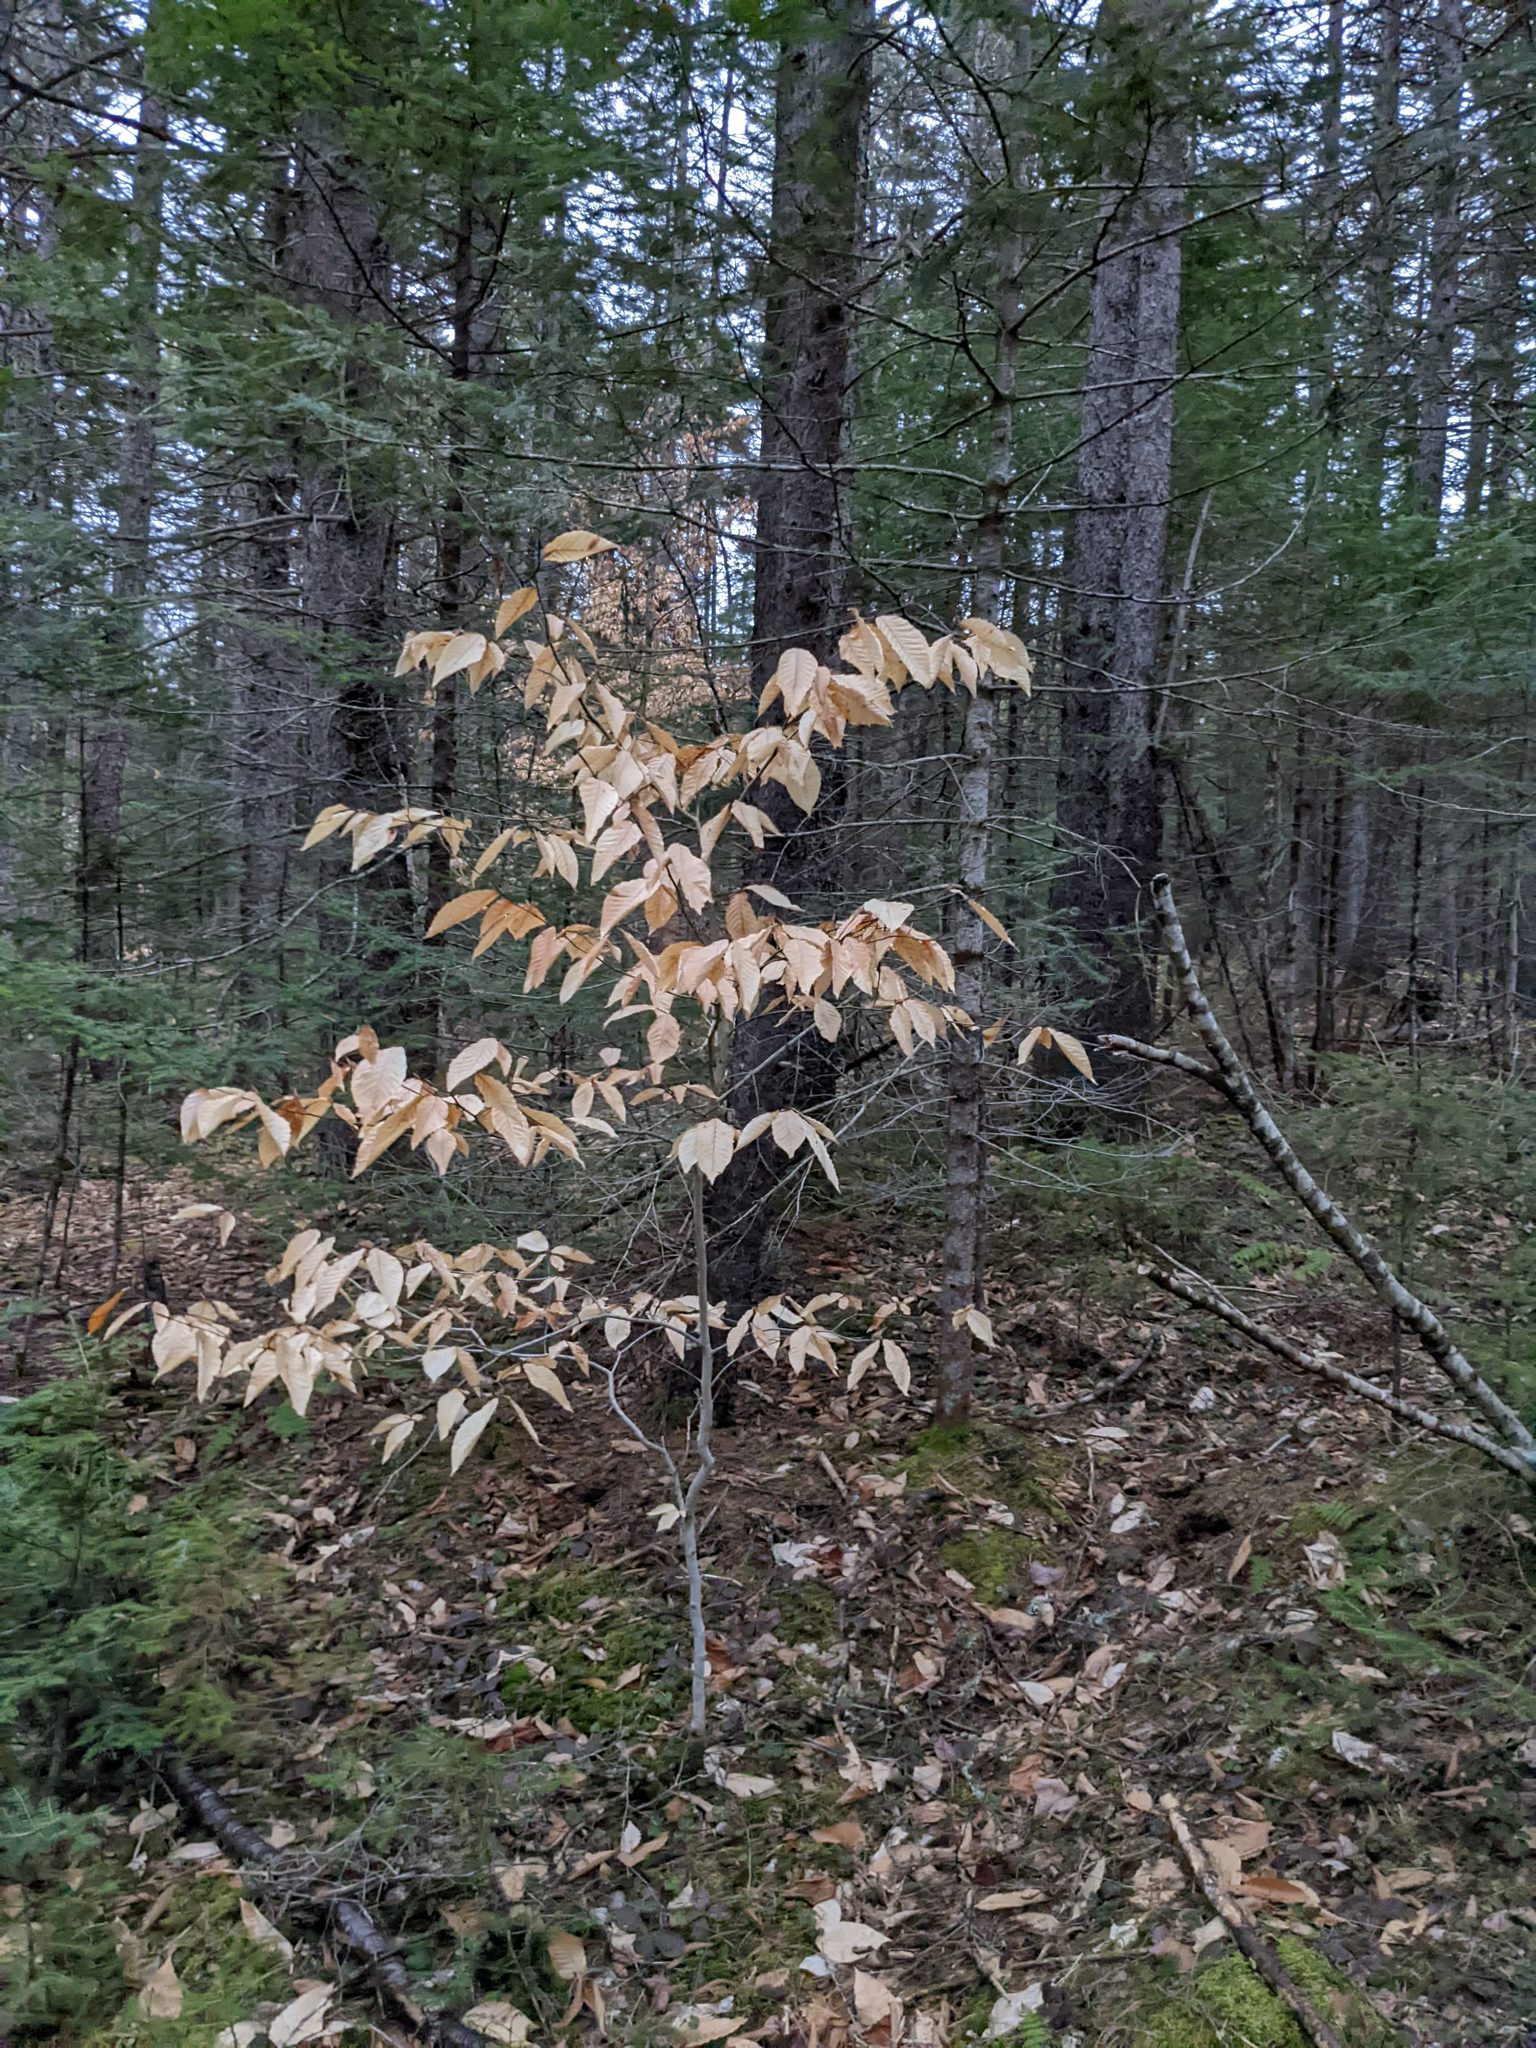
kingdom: Plantae
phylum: Tracheophyta
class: Magnoliopsida
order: Fagales
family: Fagaceae
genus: Fagus
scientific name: Fagus grandifolia
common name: American beech
